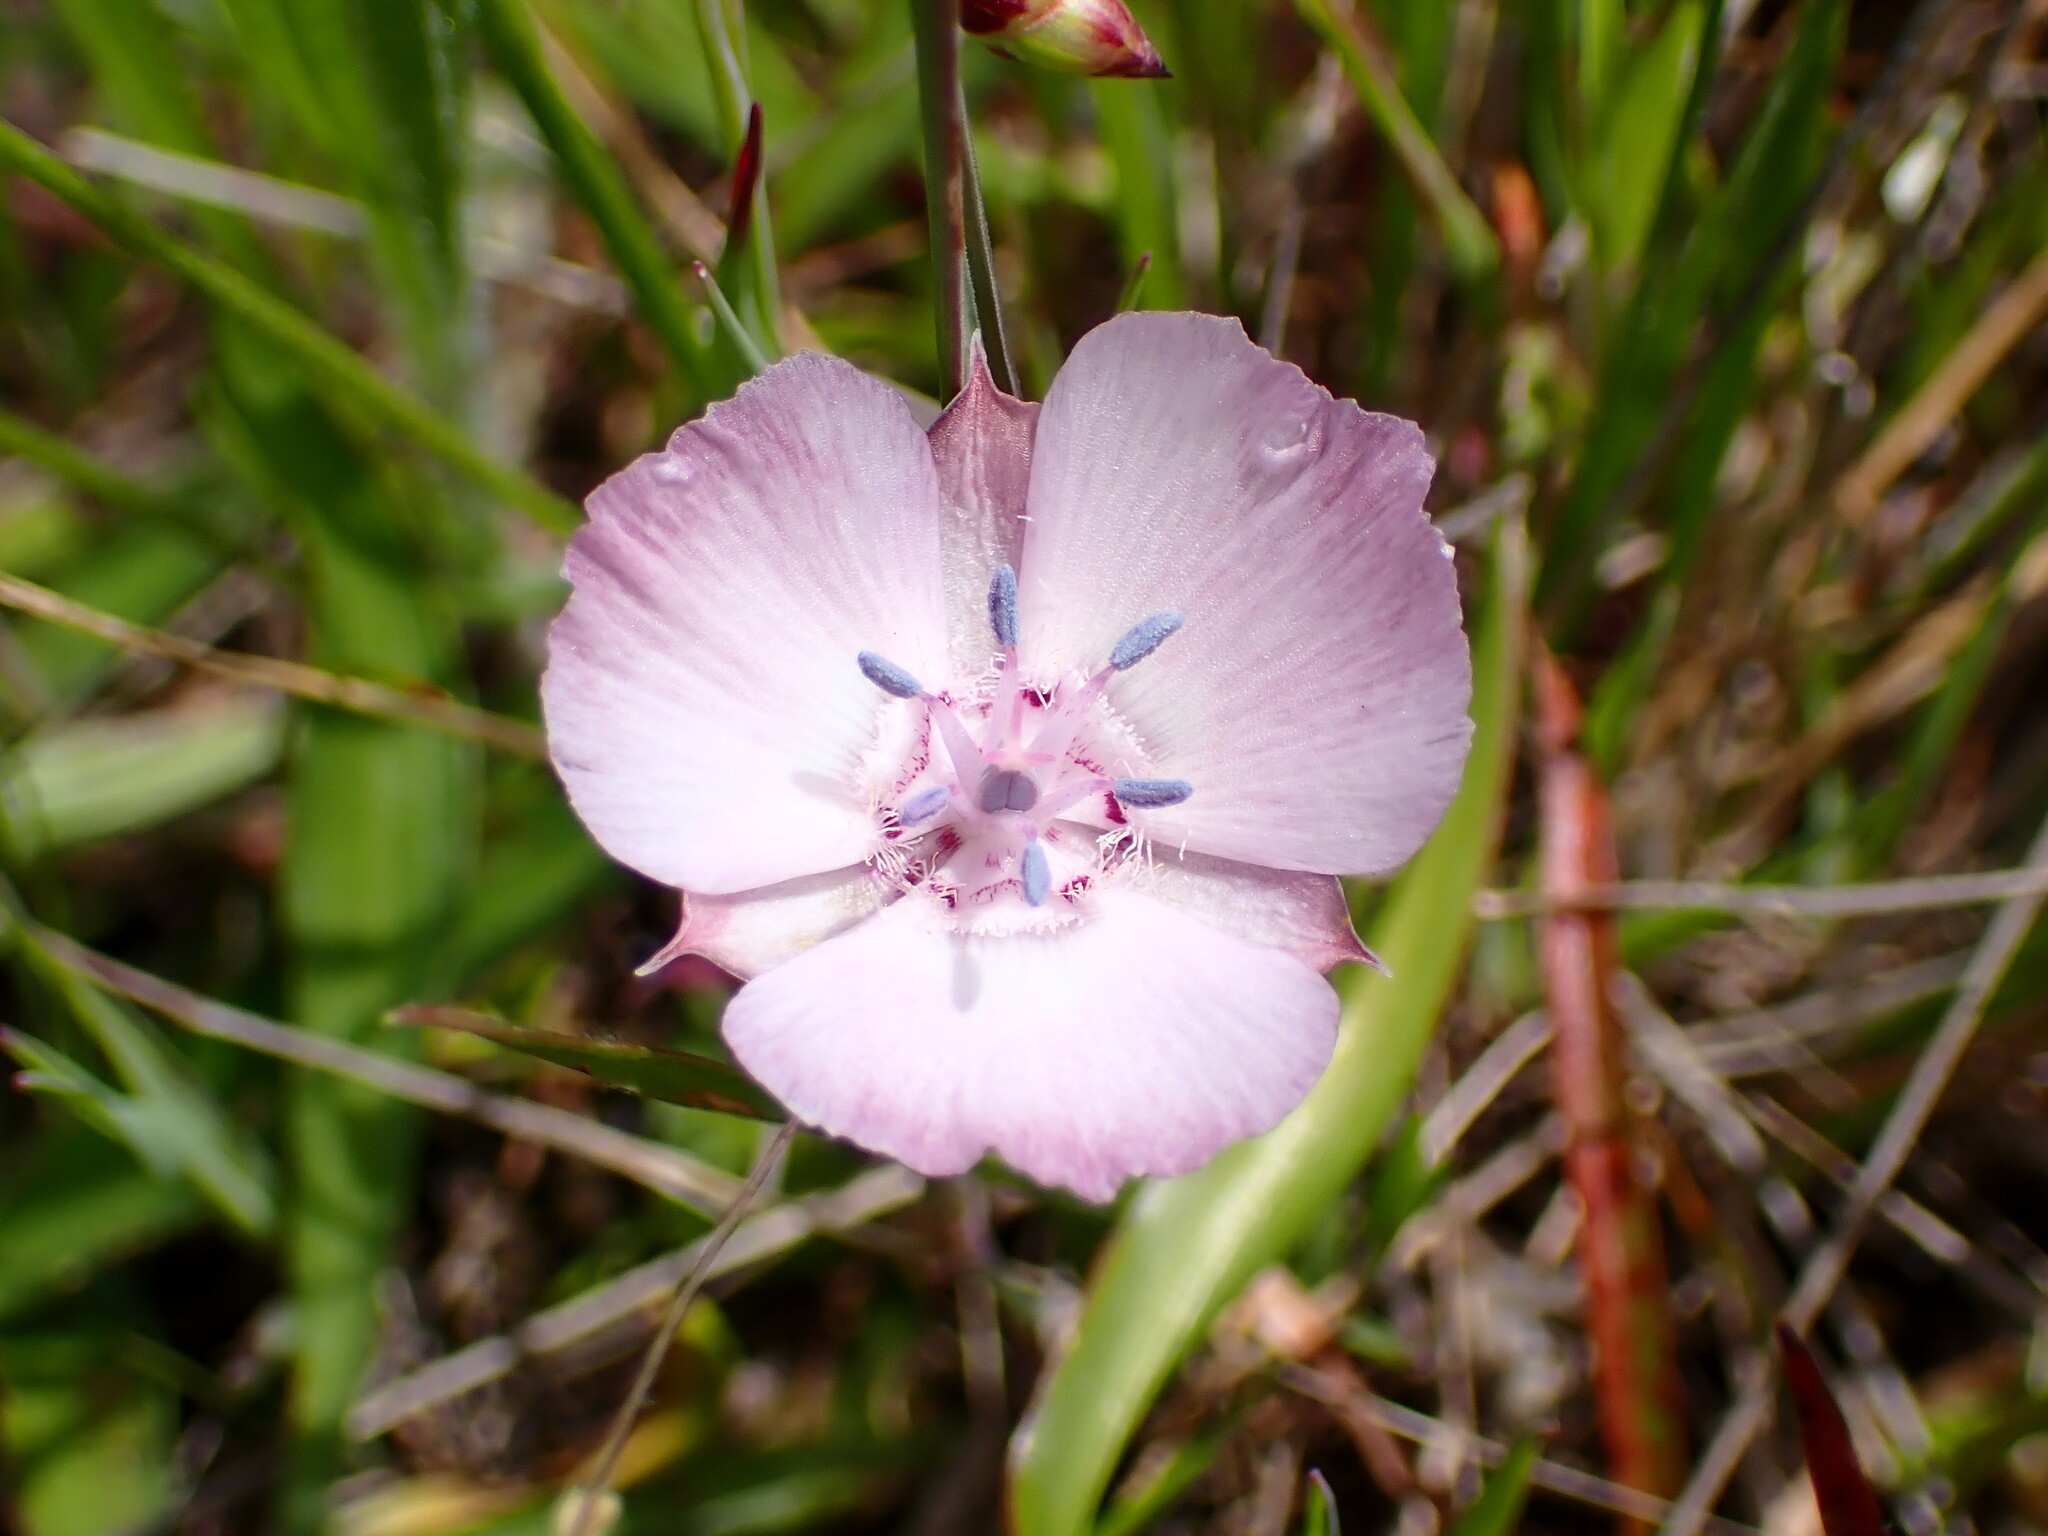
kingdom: Plantae
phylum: Tracheophyta
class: Liliopsida
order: Liliales
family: Liliaceae
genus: Calochortus
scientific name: Calochortus umbellatus
